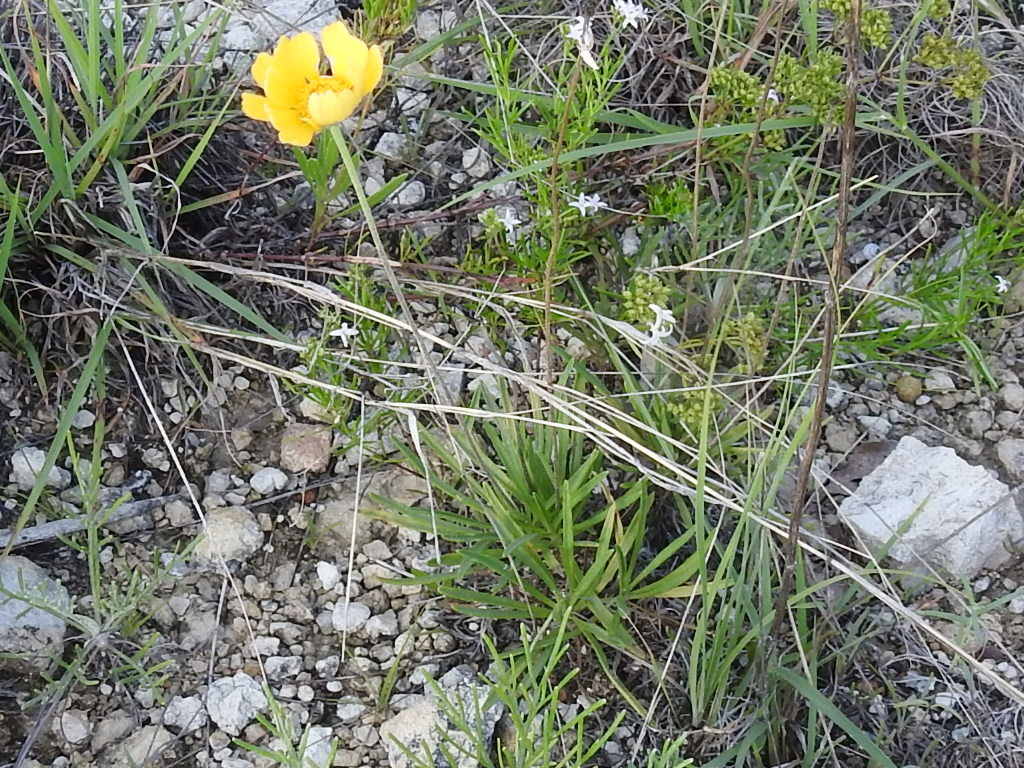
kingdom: Plantae
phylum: Tracheophyta
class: Magnoliopsida
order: Asterales
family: Asteraceae
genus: Tetraneuris
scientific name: Tetraneuris scaposa
